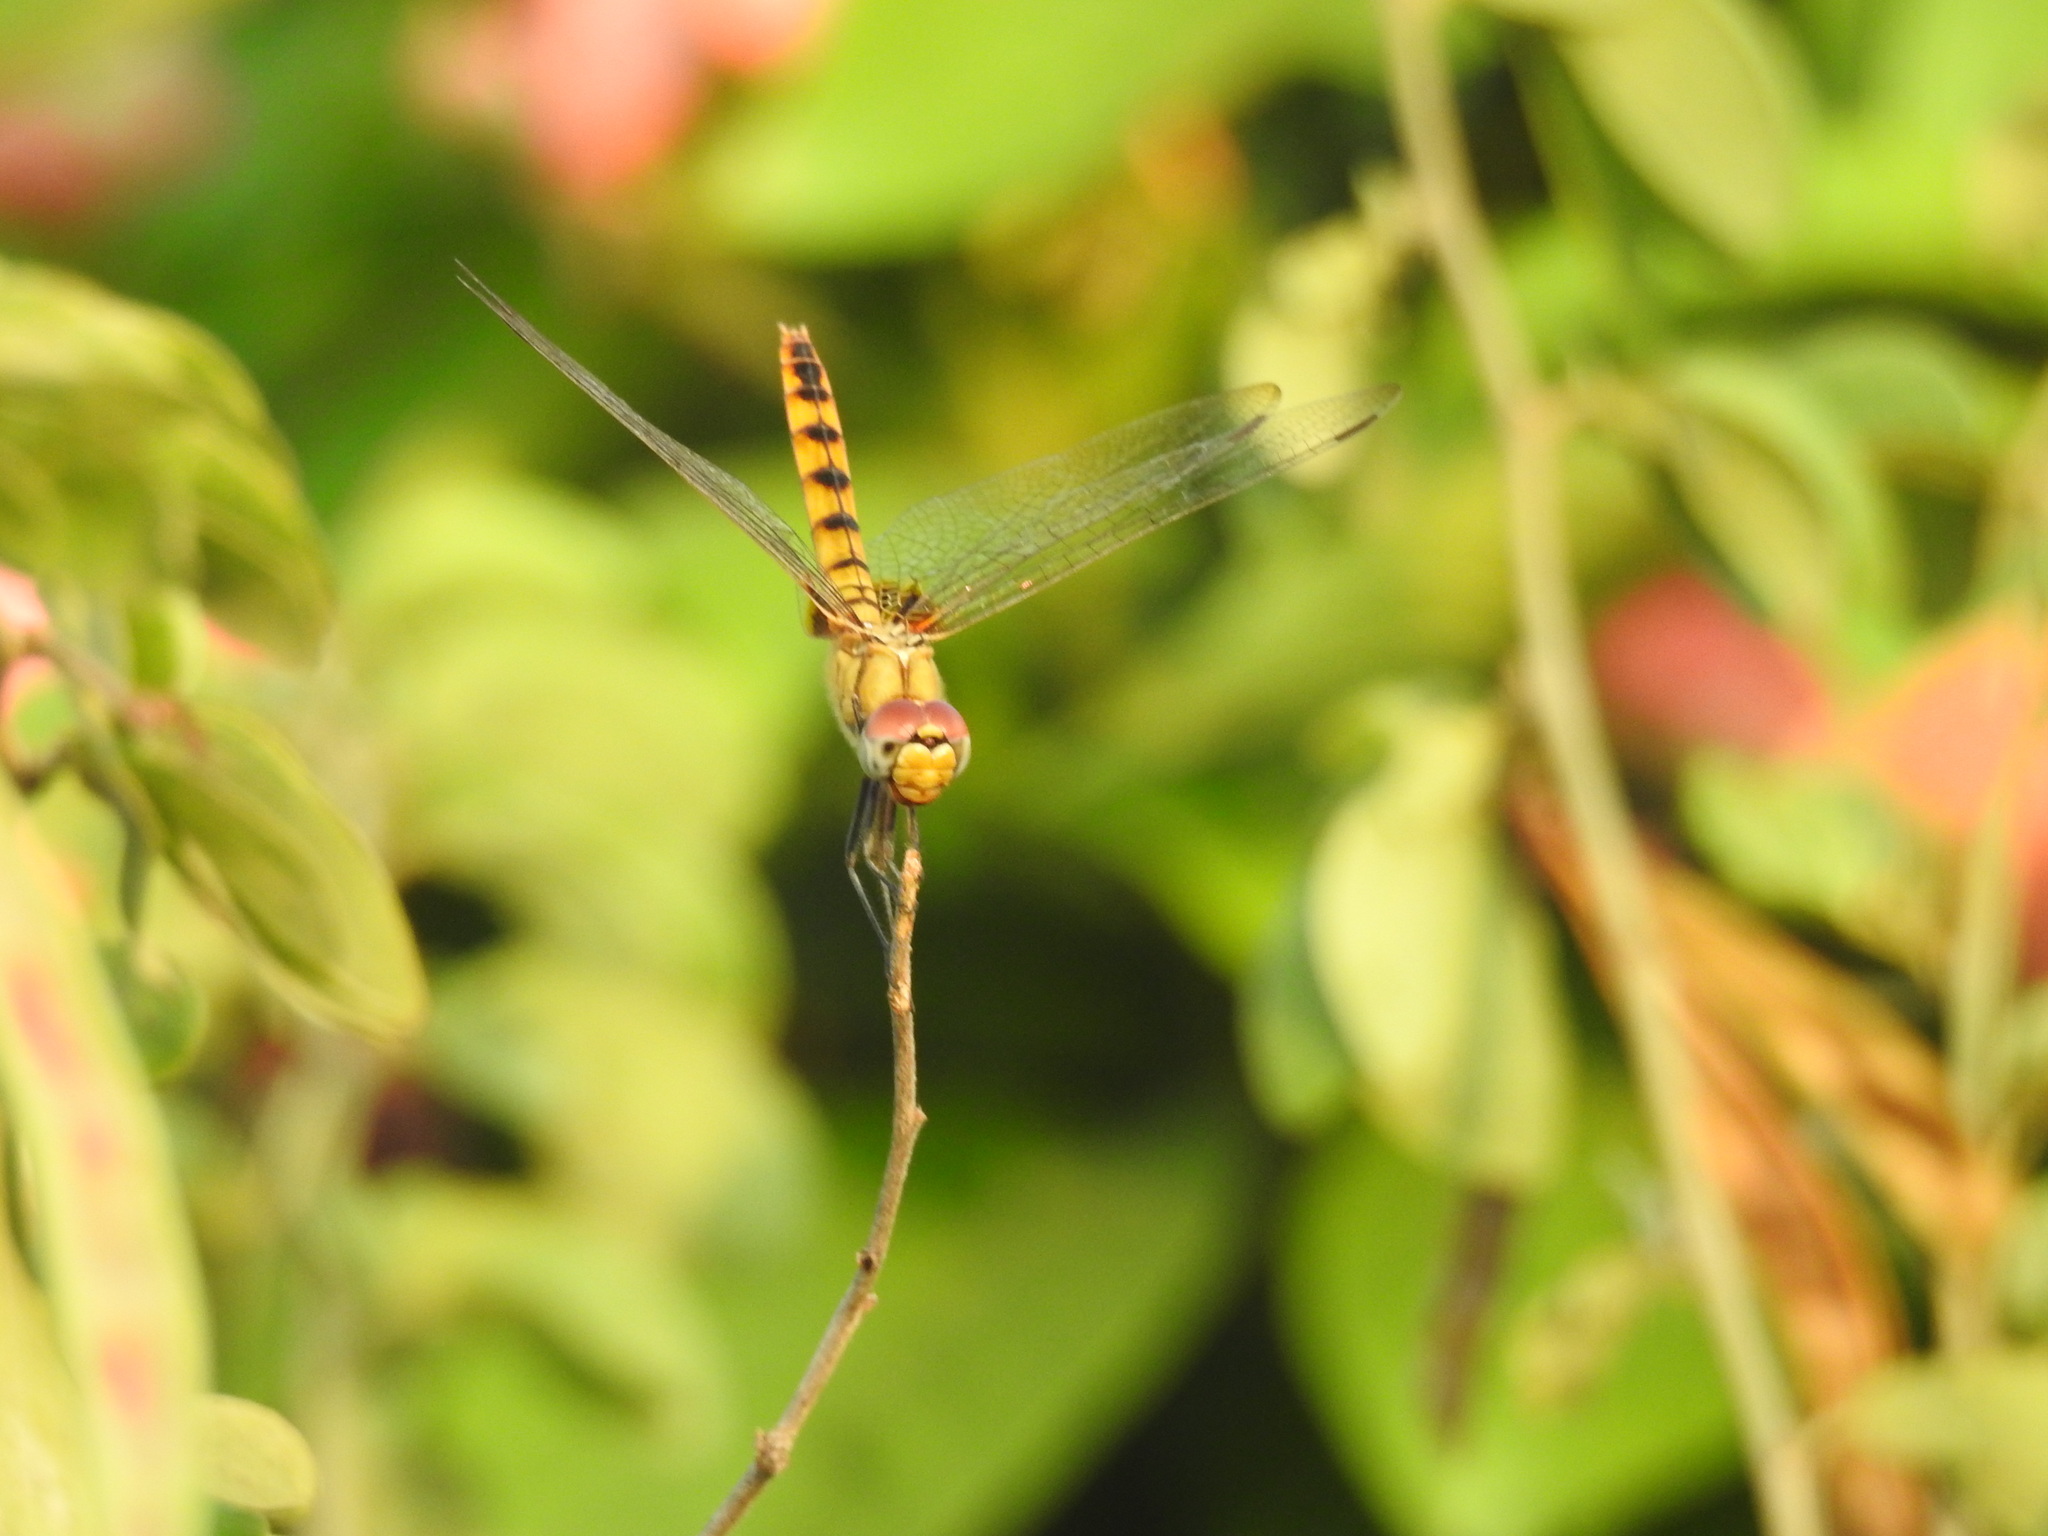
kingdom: Animalia
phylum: Arthropoda
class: Insecta
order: Odonata
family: Libellulidae
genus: Urothemis
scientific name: Urothemis signata
